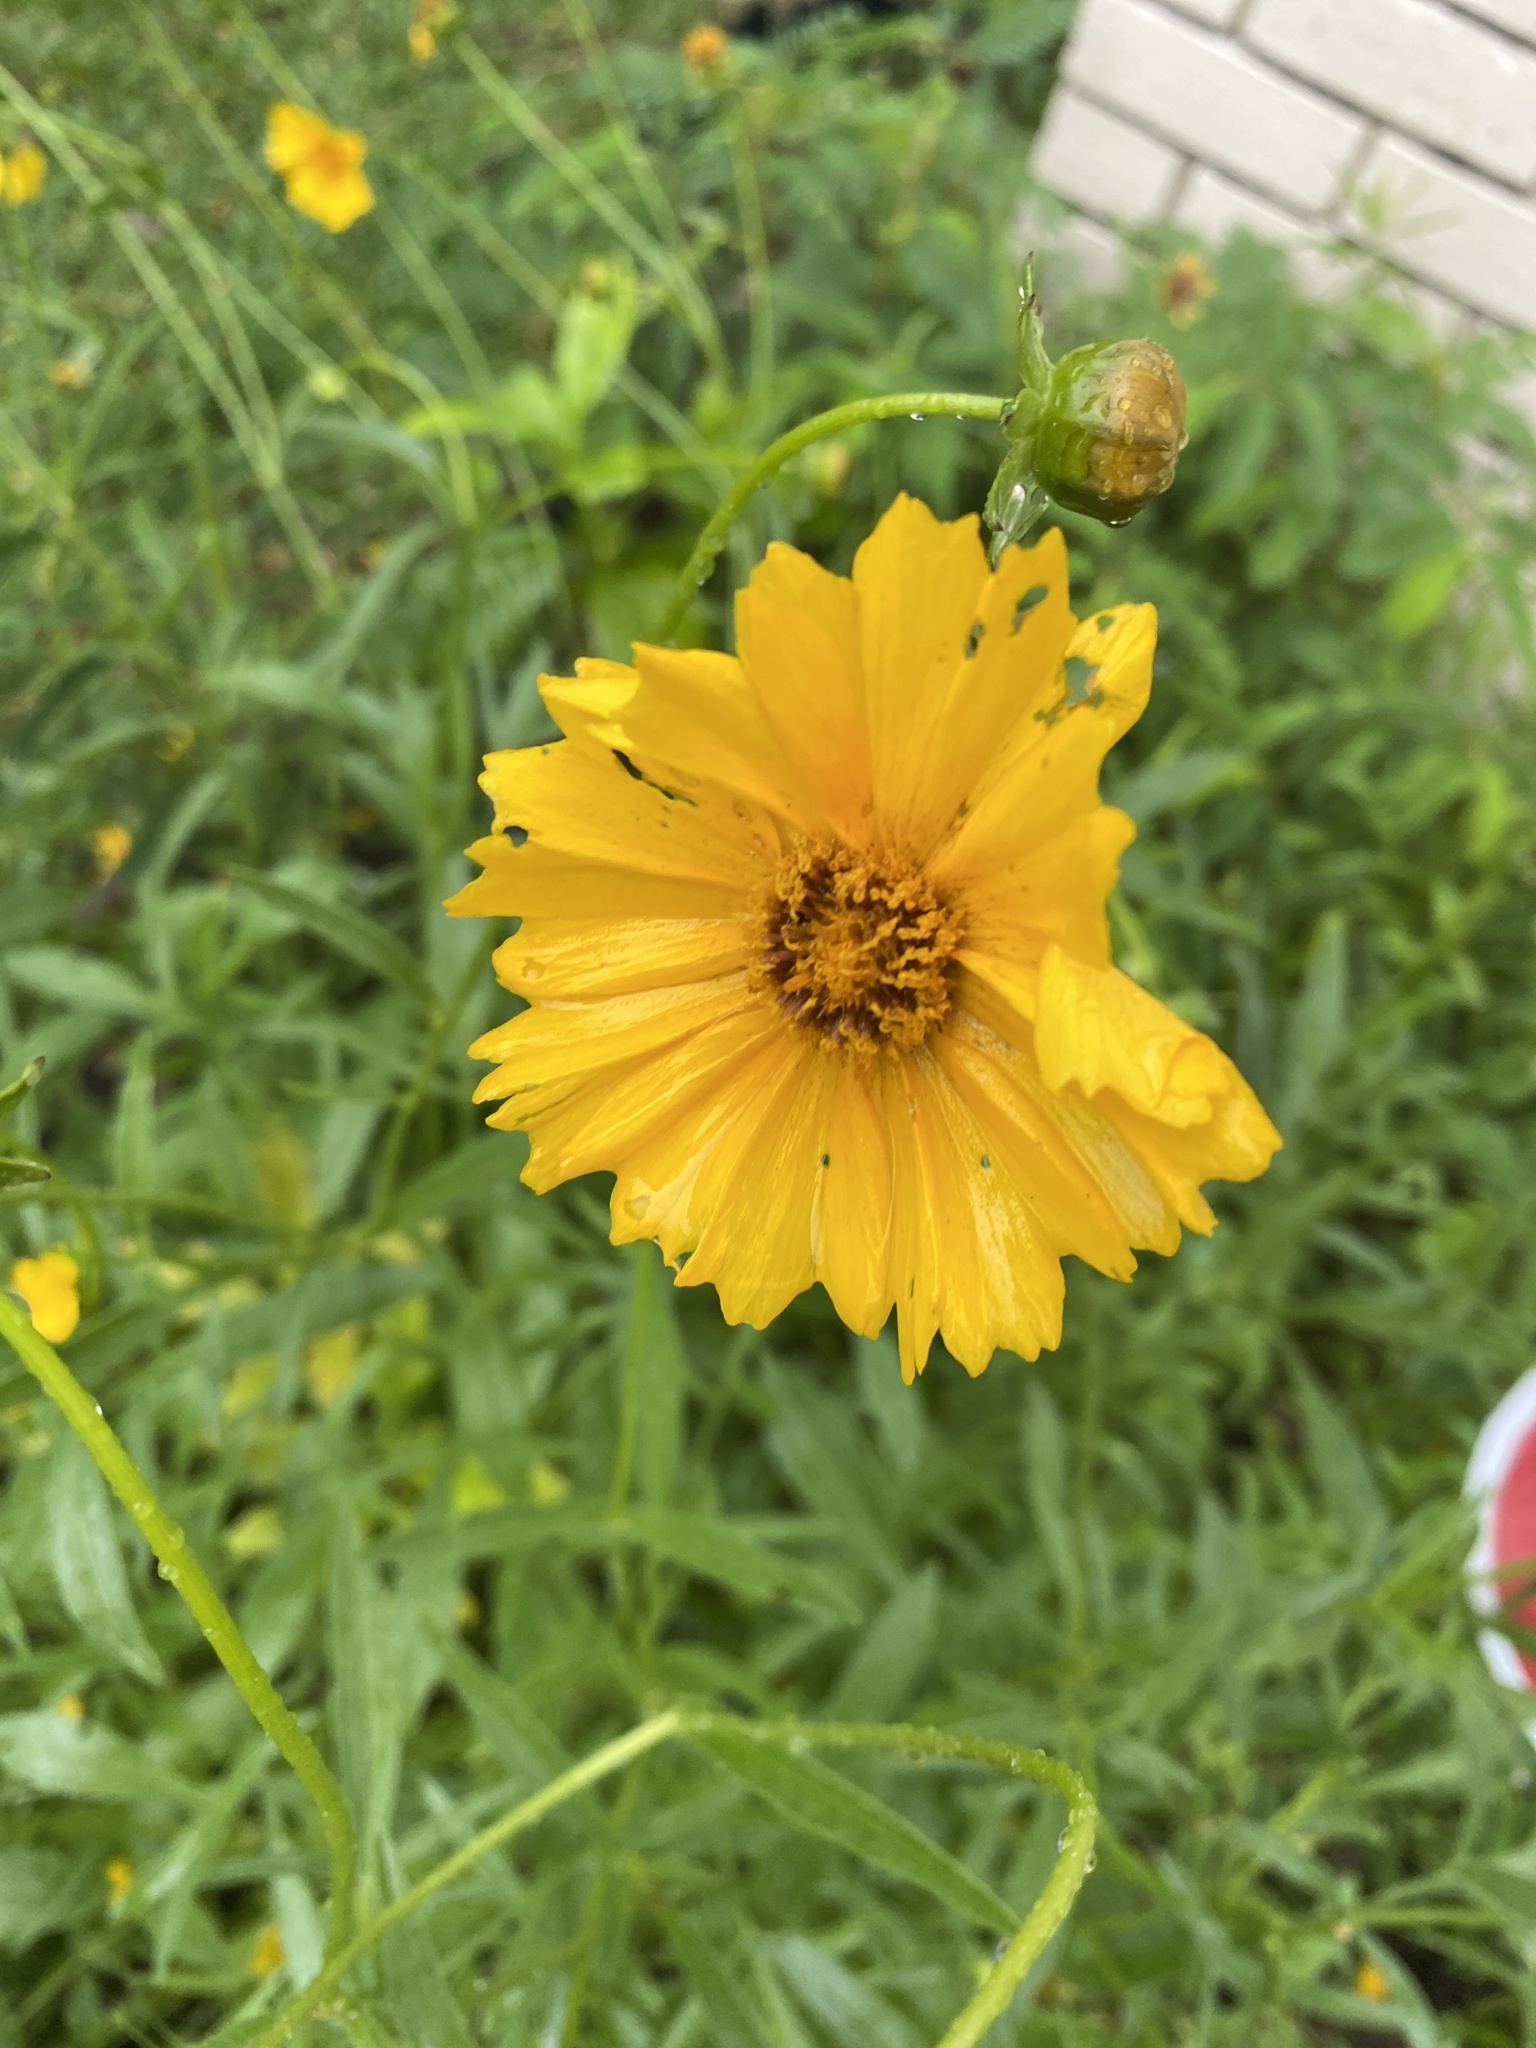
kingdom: Plantae
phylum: Tracheophyta
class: Magnoliopsida
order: Asterales
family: Asteraceae
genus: Coreopsis
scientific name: Coreopsis lanceolata
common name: Garden coreopsis
